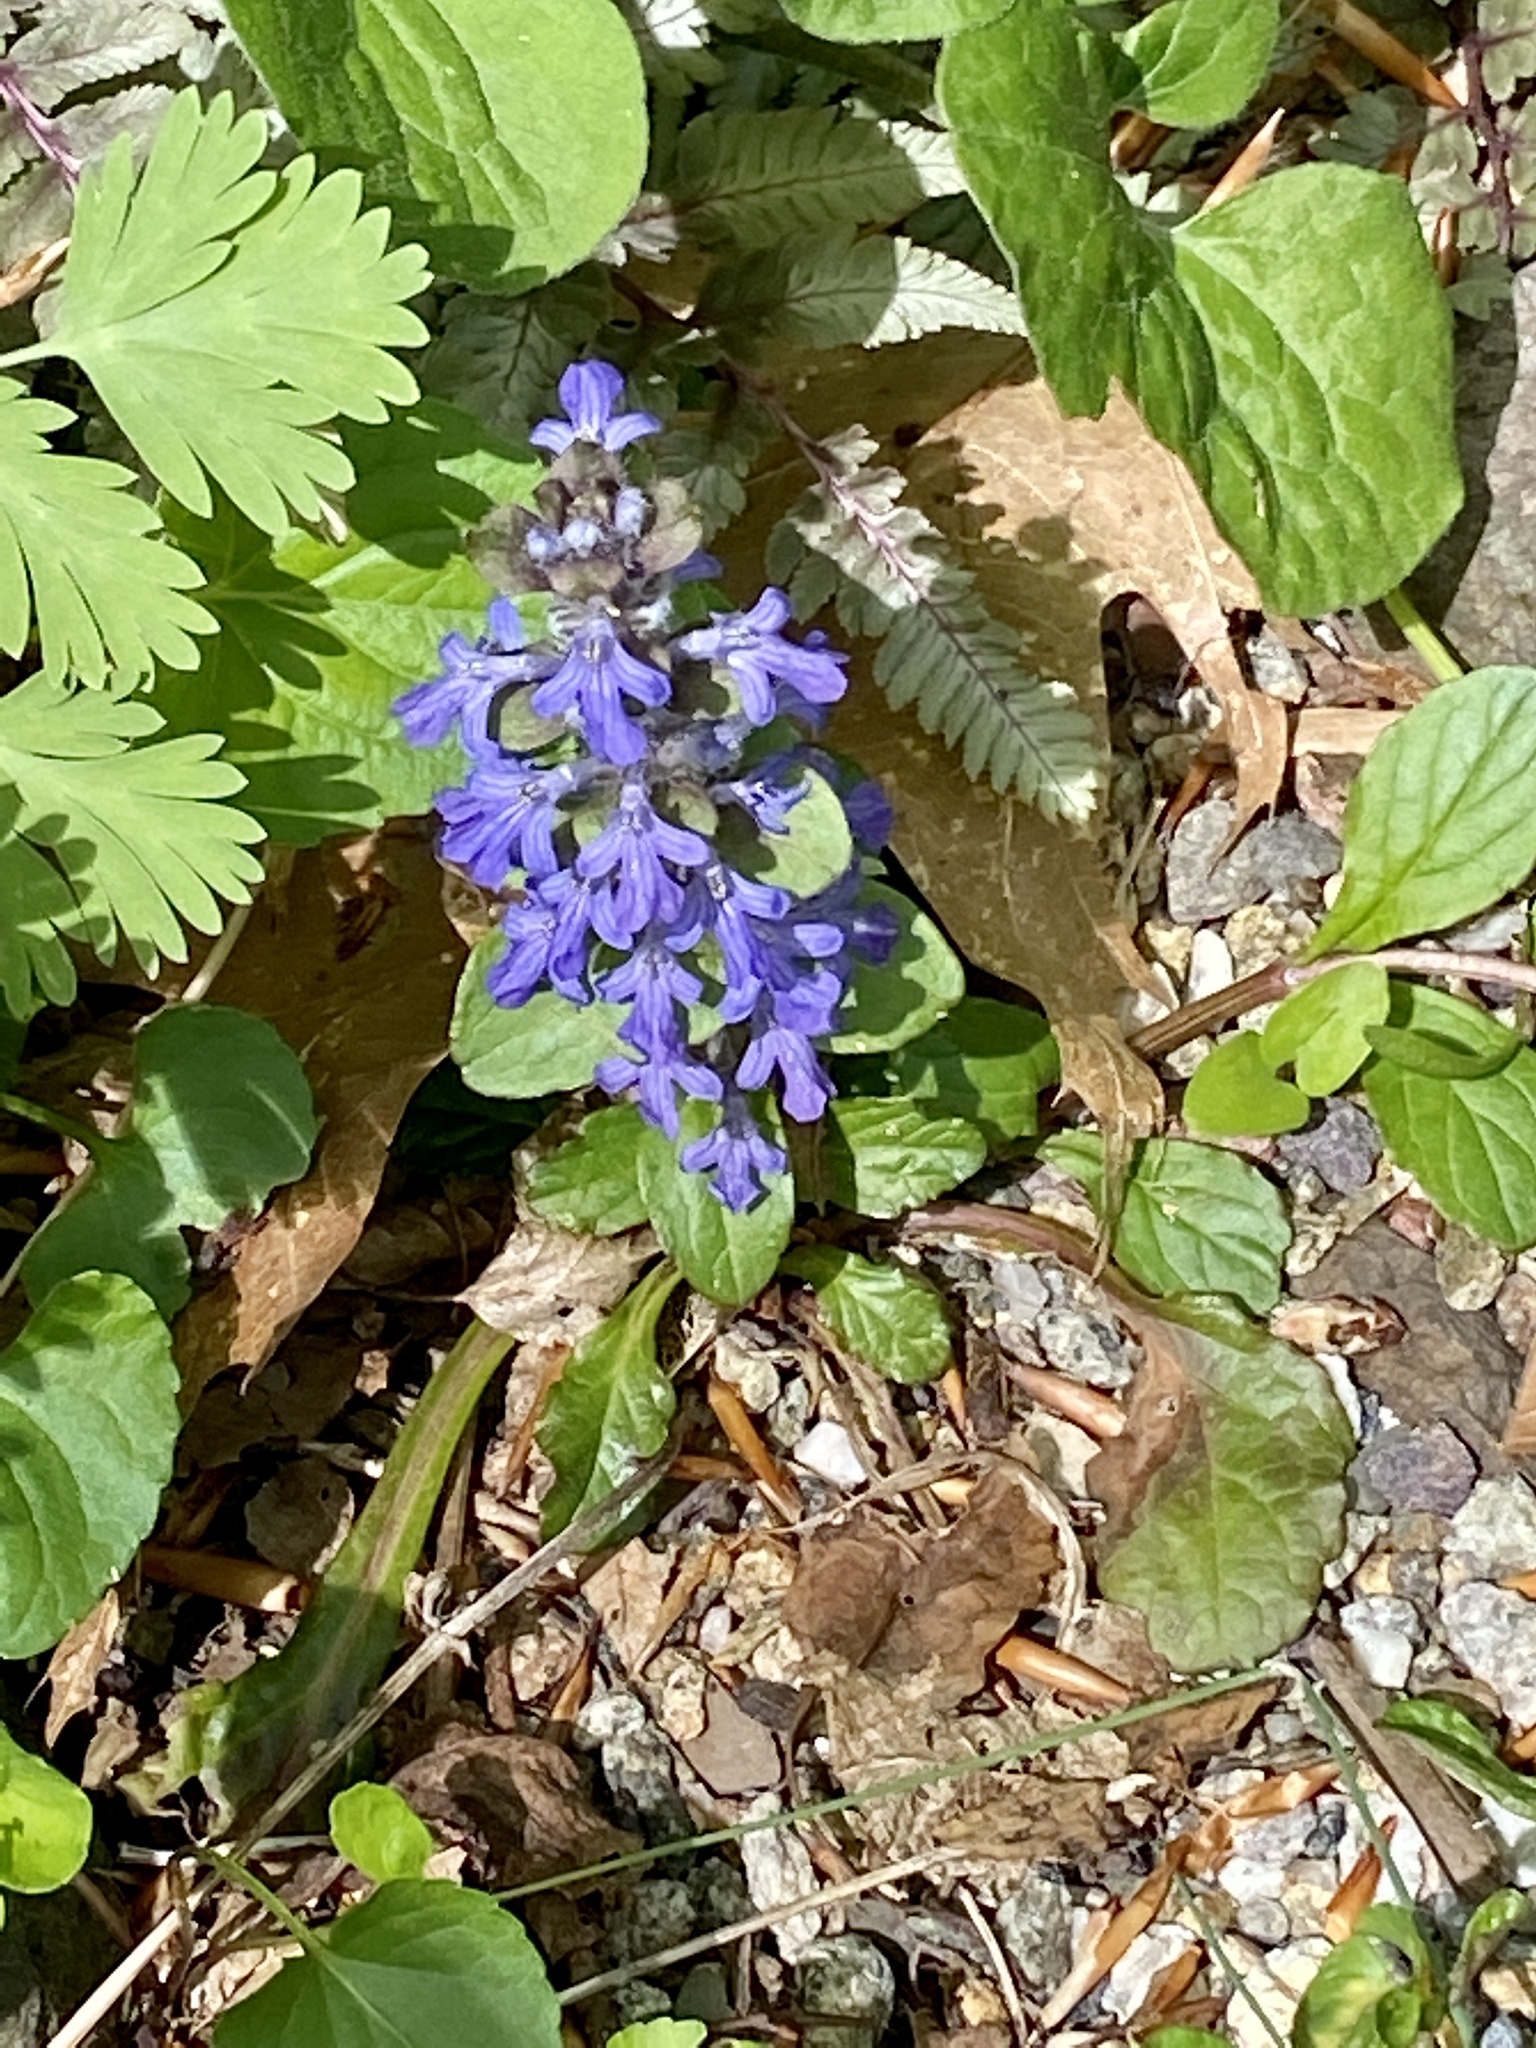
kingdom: Plantae
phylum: Tracheophyta
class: Magnoliopsida
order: Lamiales
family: Lamiaceae
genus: Ajuga
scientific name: Ajuga reptans
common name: Bugle
